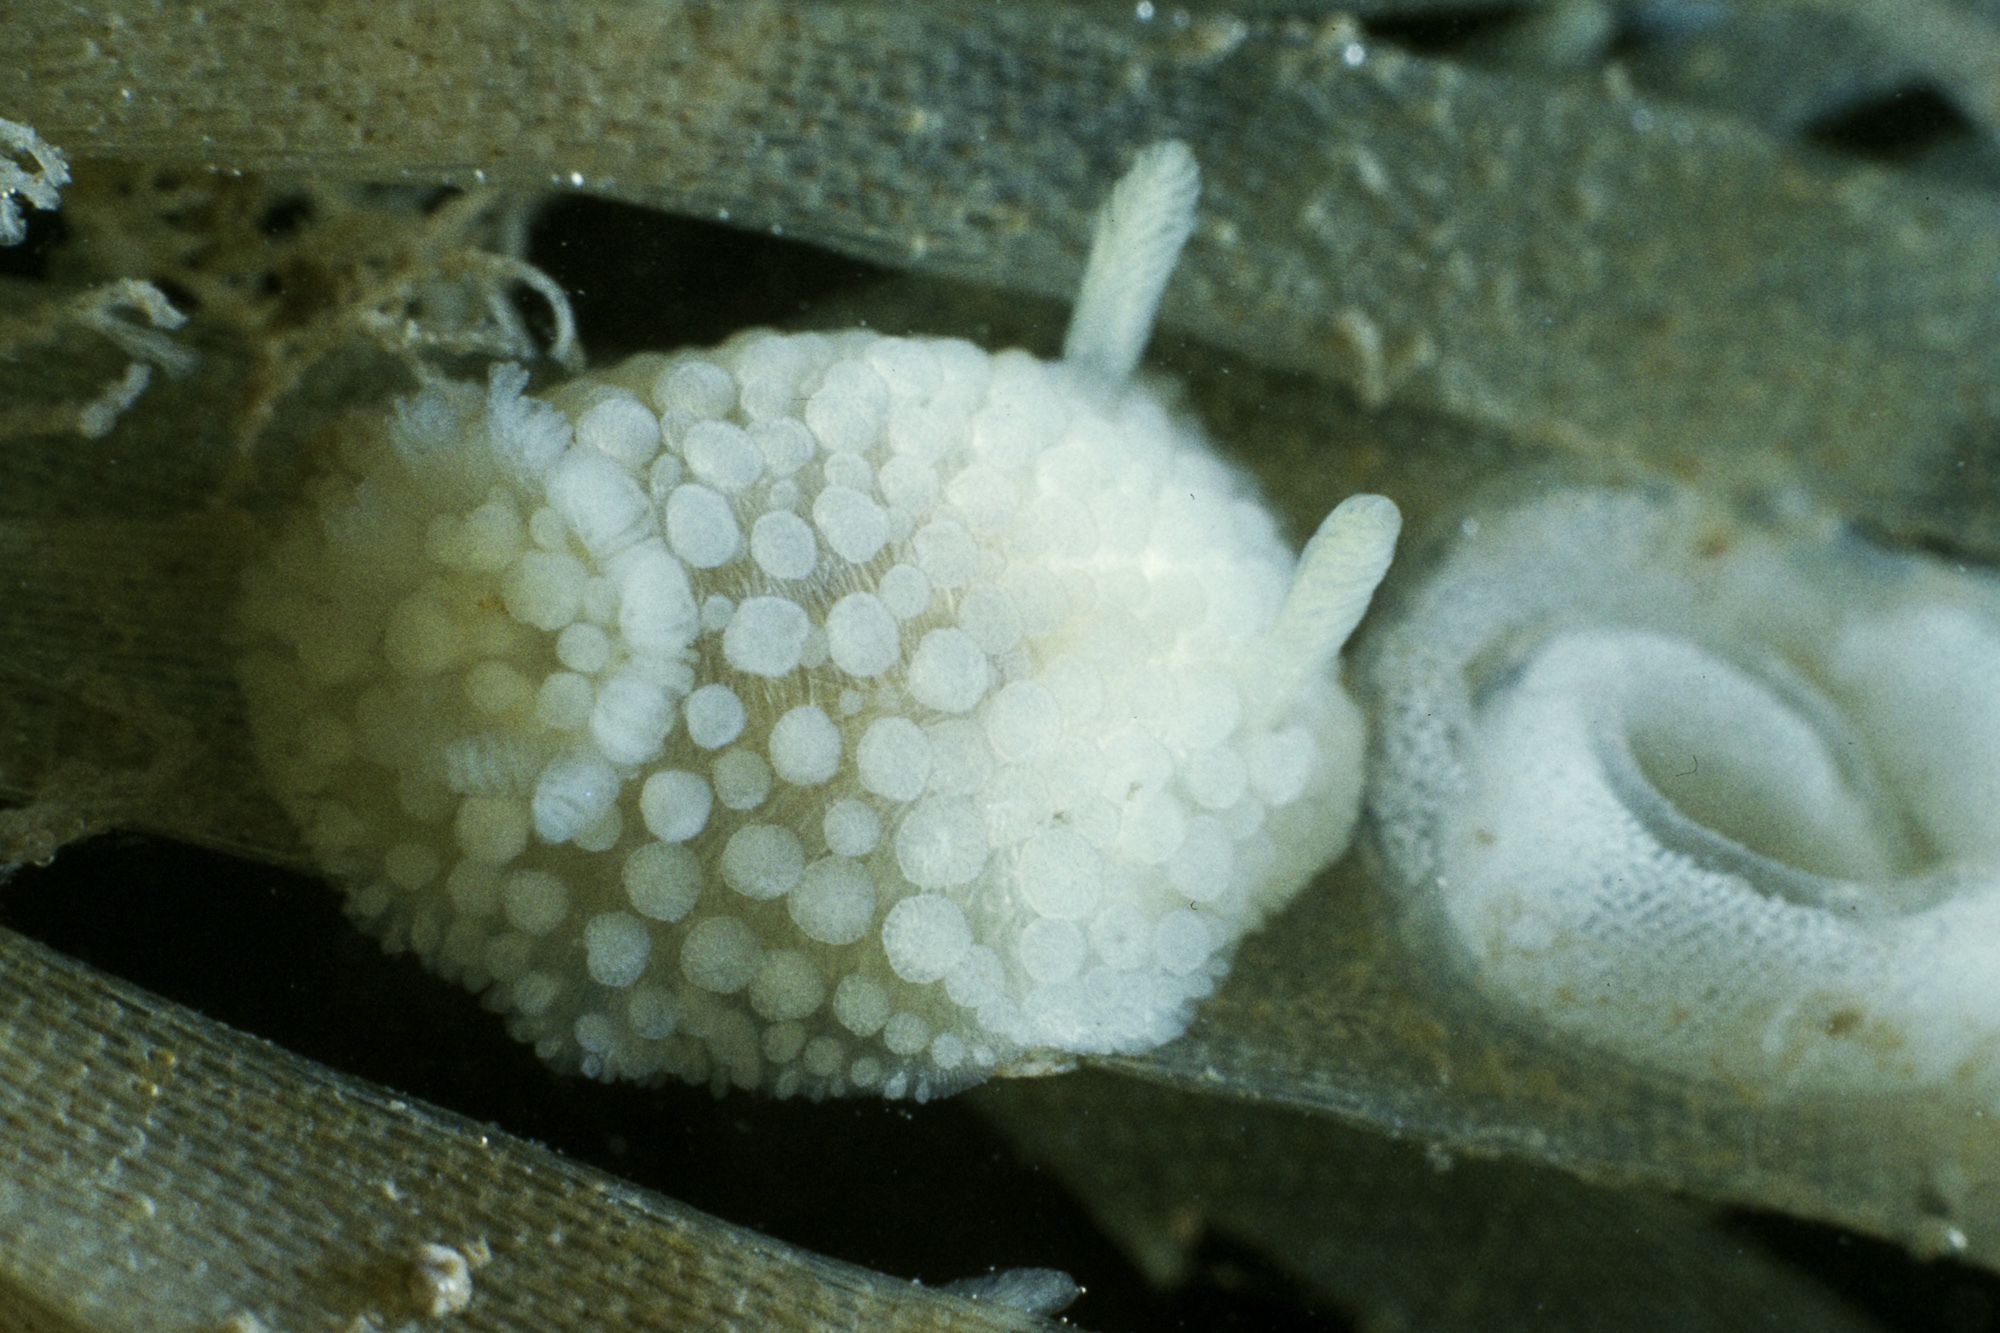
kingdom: Animalia
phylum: Mollusca
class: Gastropoda
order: Nudibranchia
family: Onchidorididae
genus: Onchidoris
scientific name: Onchidoris muricata
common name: Rough doris
